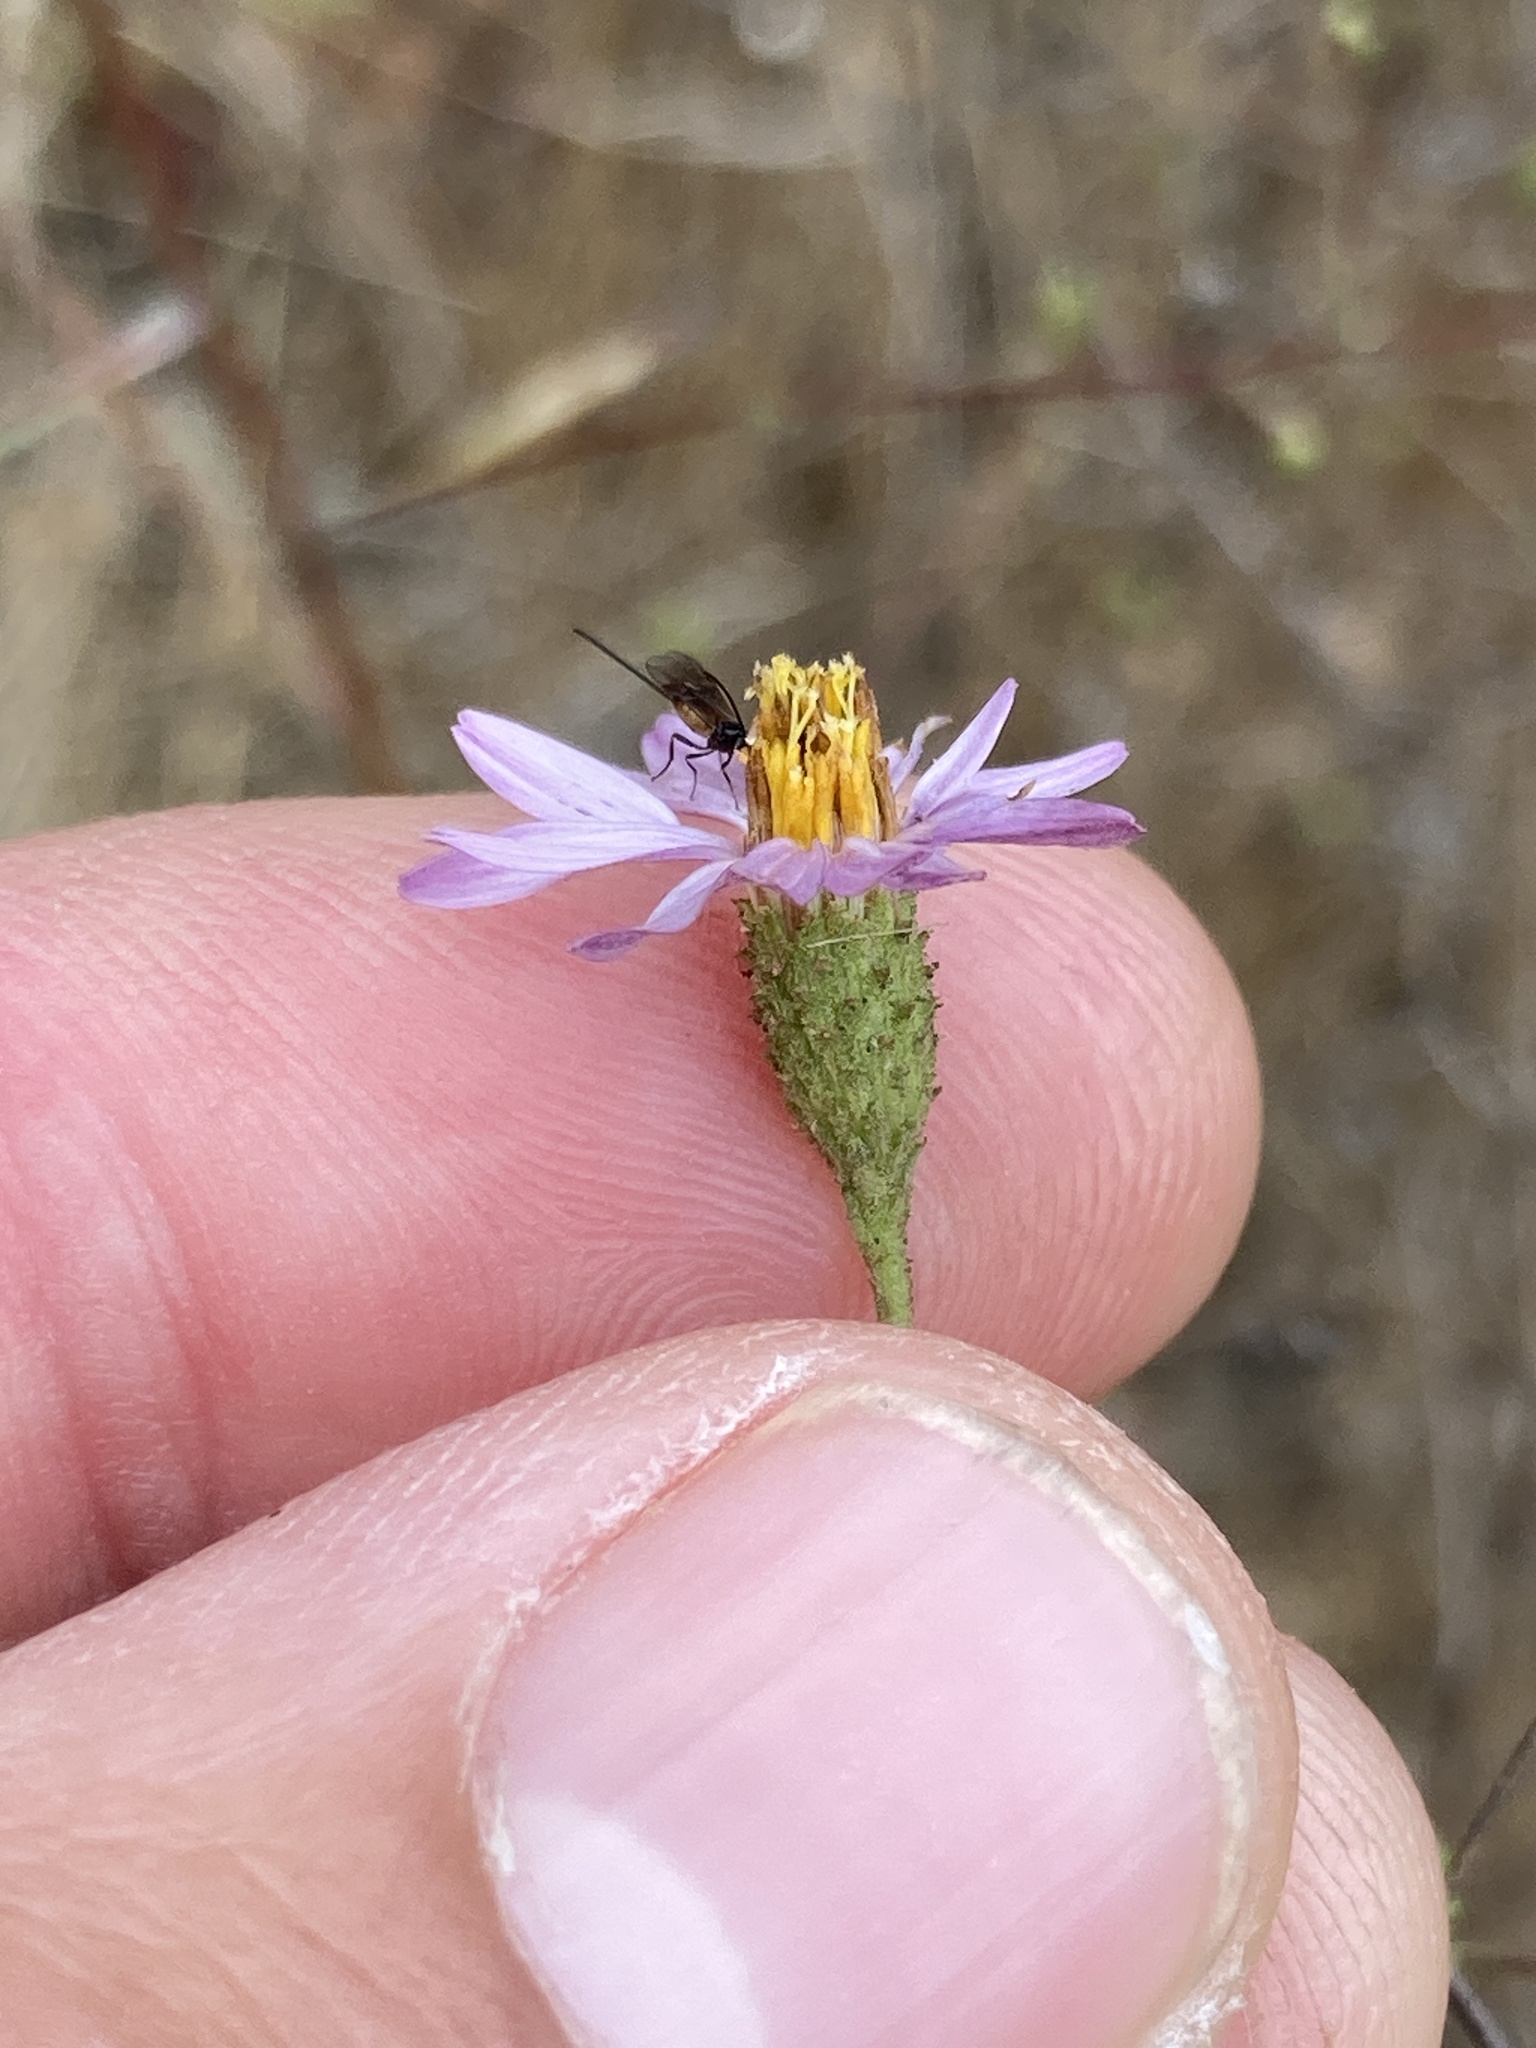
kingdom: Plantae
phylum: Tracheophyta
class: Magnoliopsida
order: Asterales
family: Asteraceae
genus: Corethrogyne
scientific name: Corethrogyne filaginifolia
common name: Sand-aster
